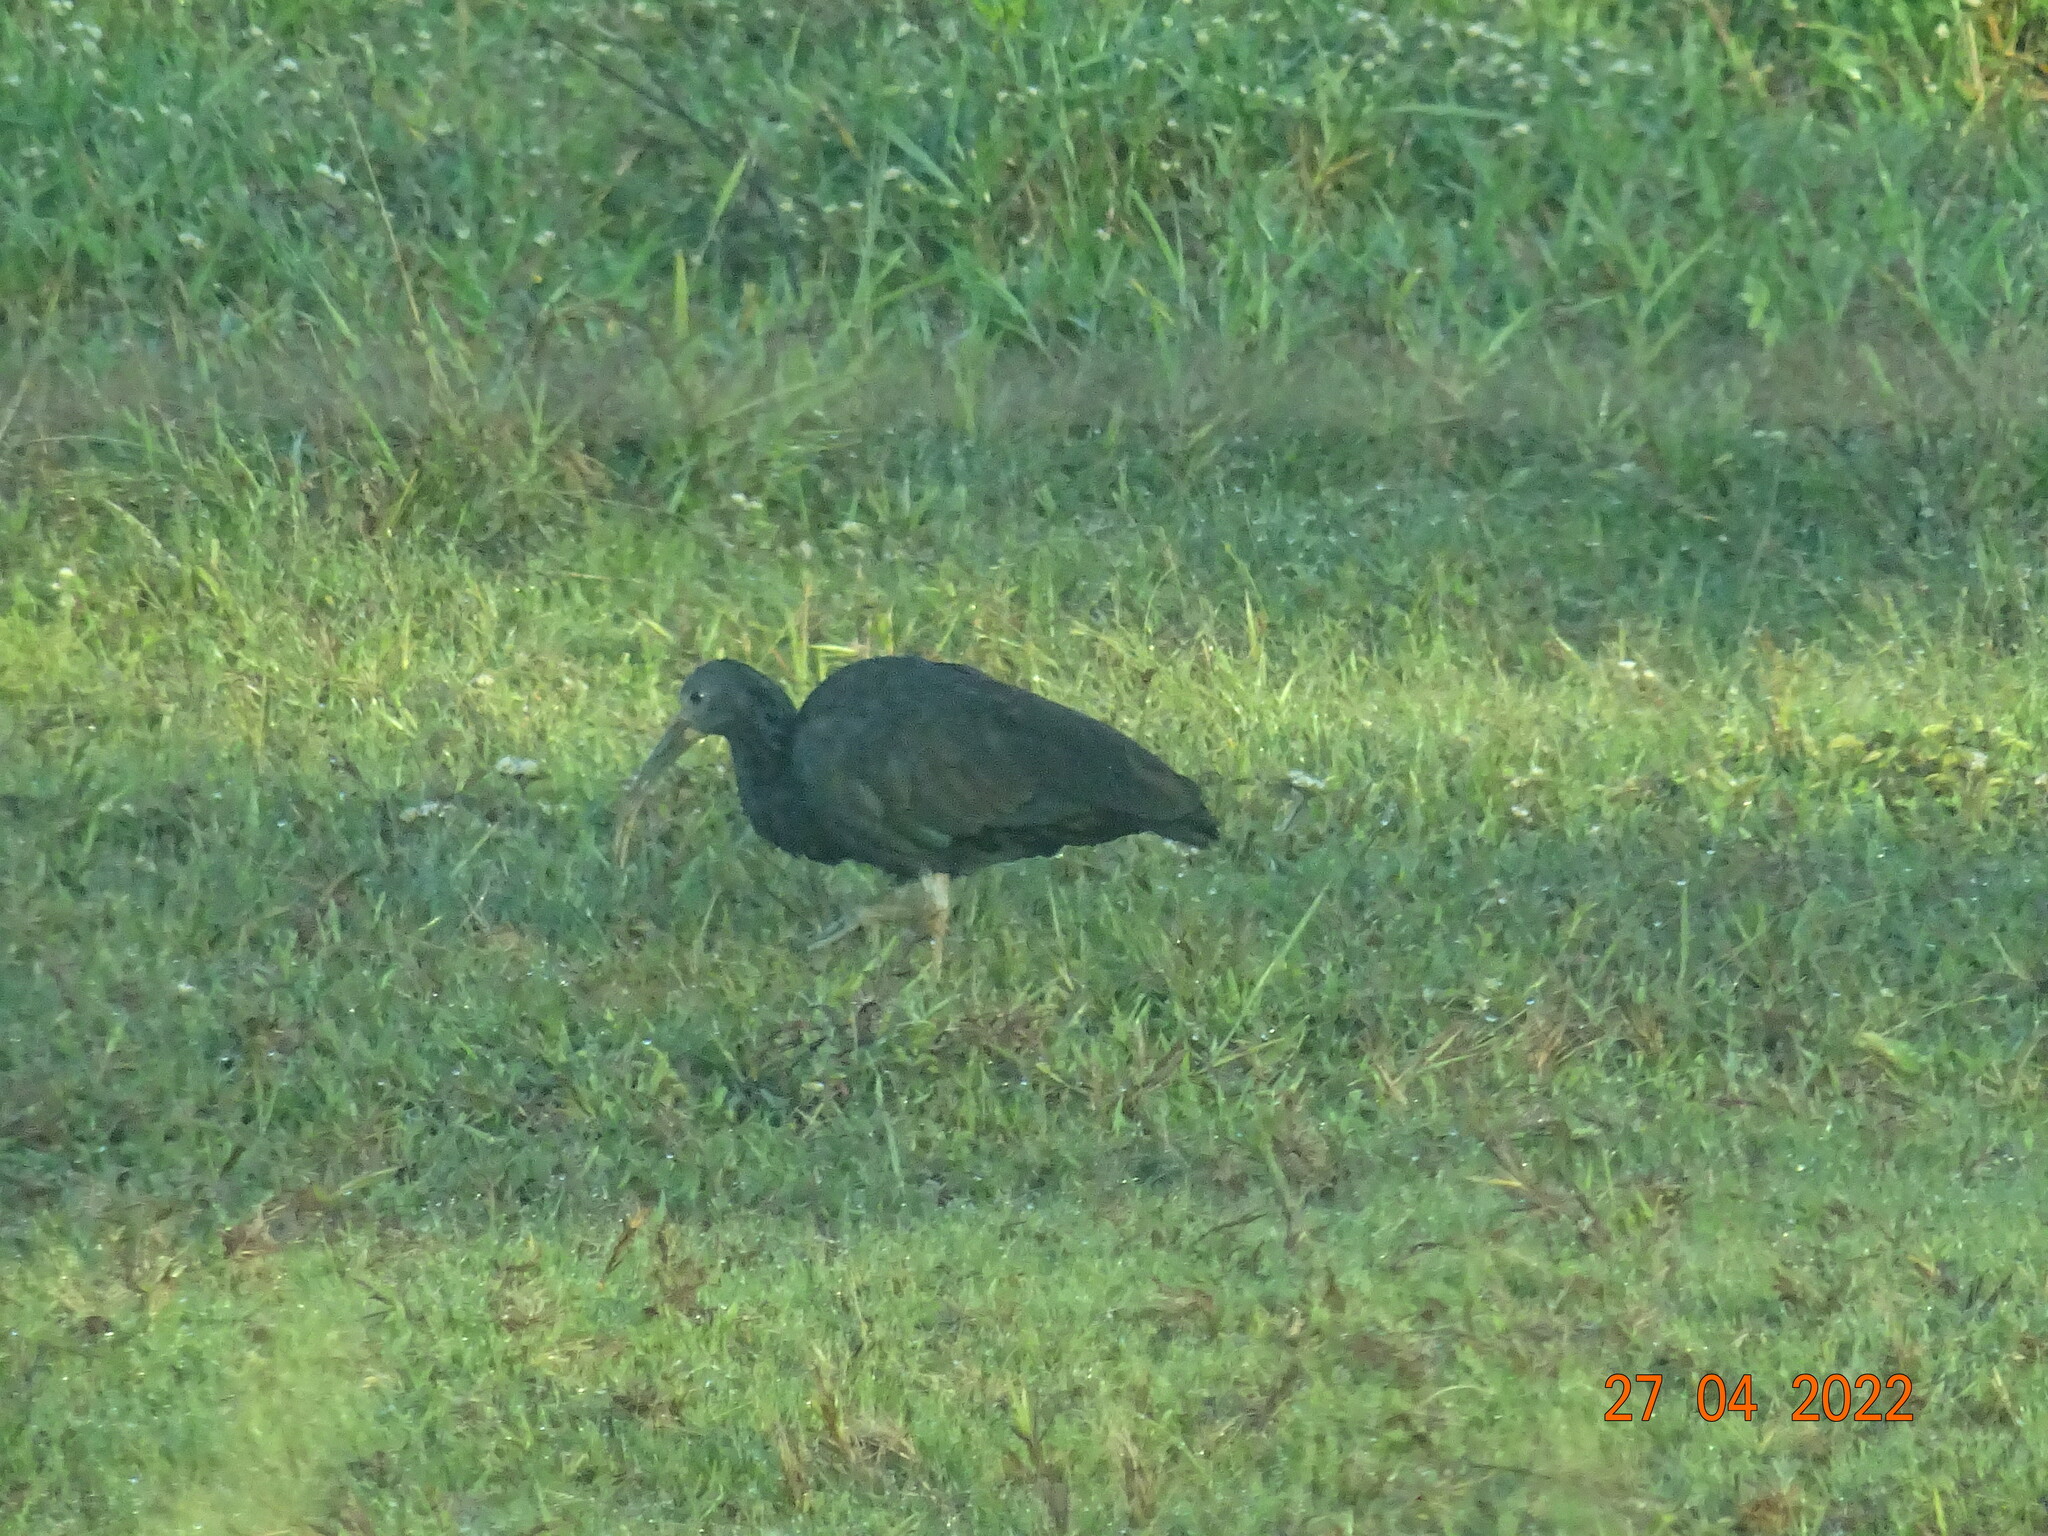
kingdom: Animalia
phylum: Chordata
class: Aves
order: Pelecaniformes
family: Threskiornithidae
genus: Mesembrinibis
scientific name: Mesembrinibis cayennensis
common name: Green ibis
